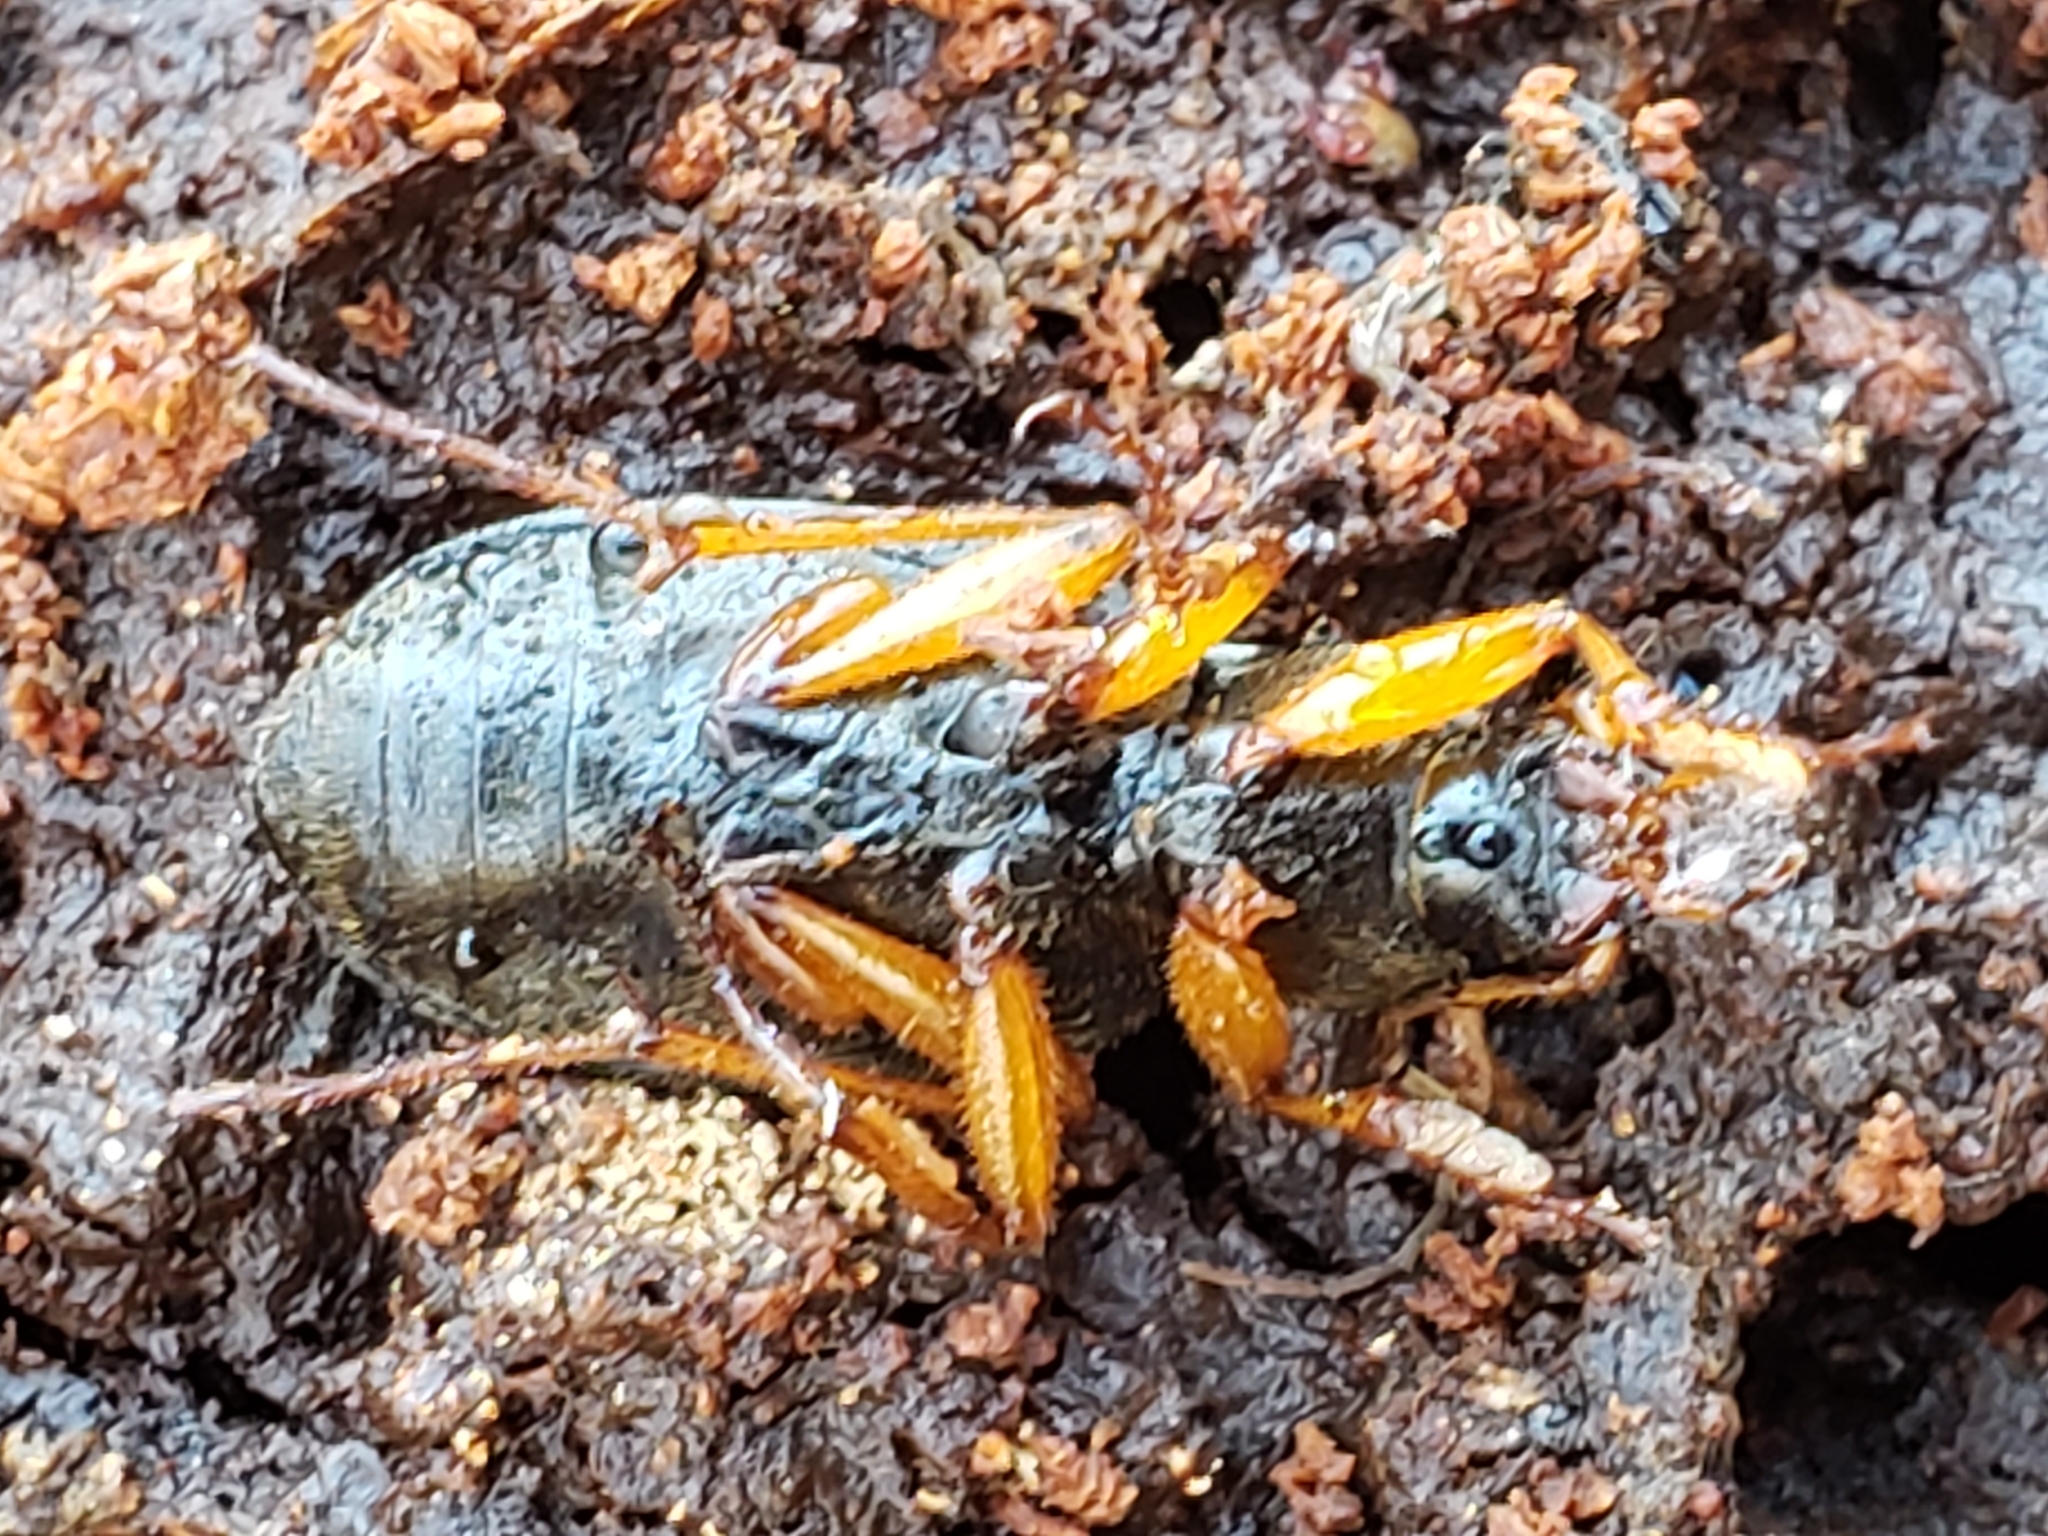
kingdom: Animalia
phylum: Arthropoda
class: Insecta
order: Coleoptera
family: Carabidae
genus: Chlaenius
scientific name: Chlaenius aestivus
